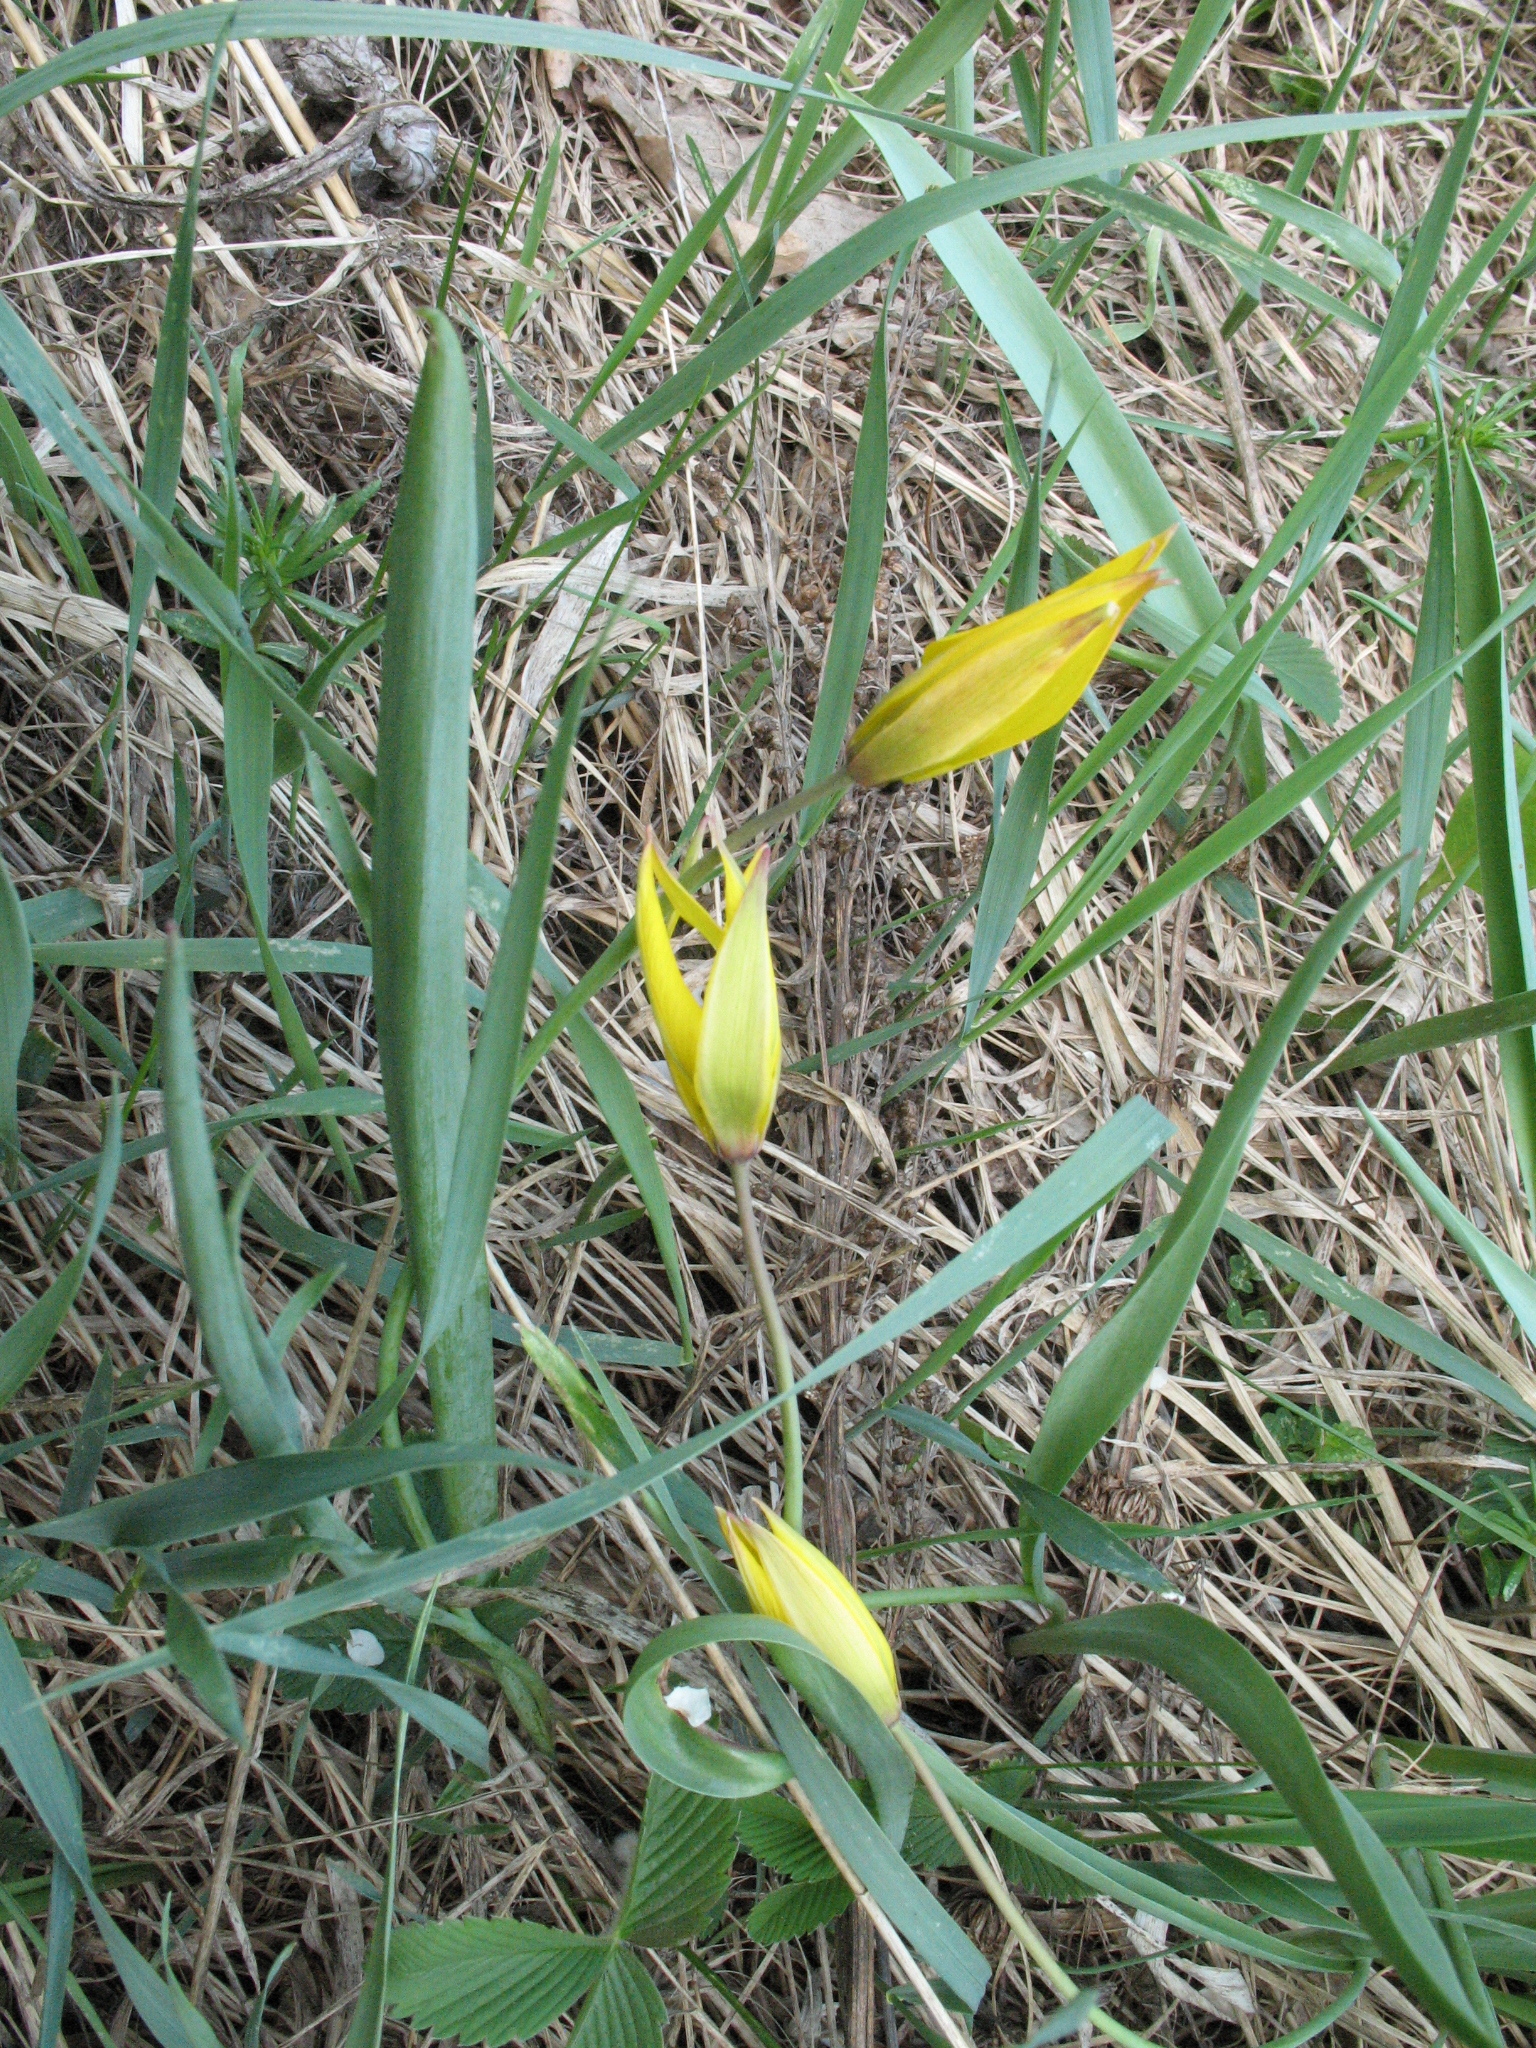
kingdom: Plantae
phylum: Tracheophyta
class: Liliopsida
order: Liliales
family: Liliaceae
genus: Tulipa
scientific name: Tulipa sylvestris
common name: Wild tulip
